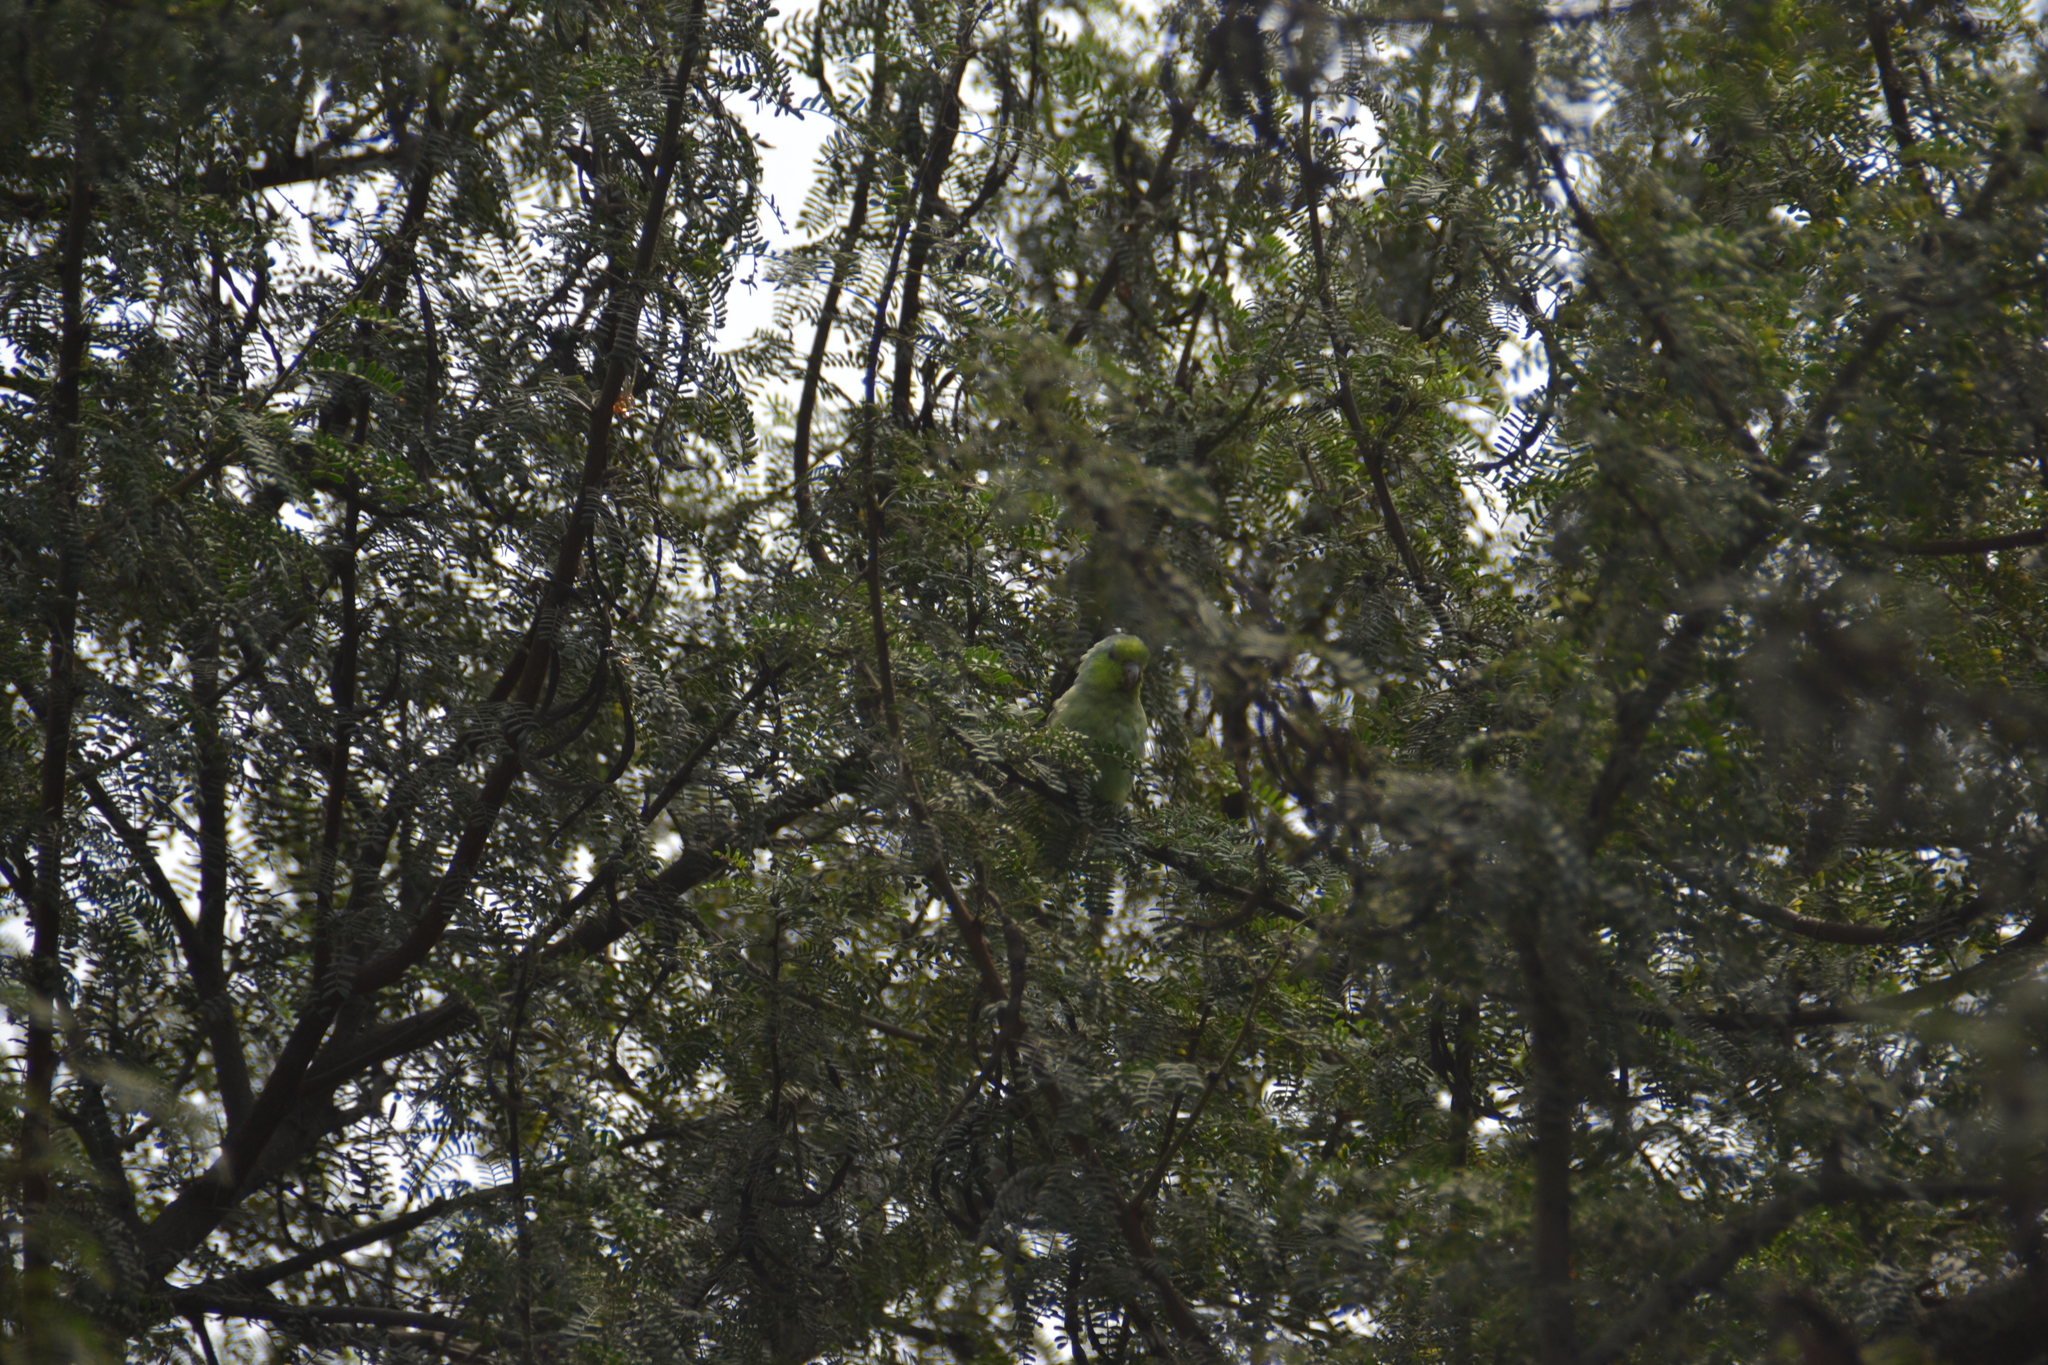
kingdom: Animalia
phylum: Chordata
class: Aves
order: Psittaciformes
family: Psittacidae
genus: Forpus
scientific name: Forpus coelestis
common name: Pacific parrotlet
